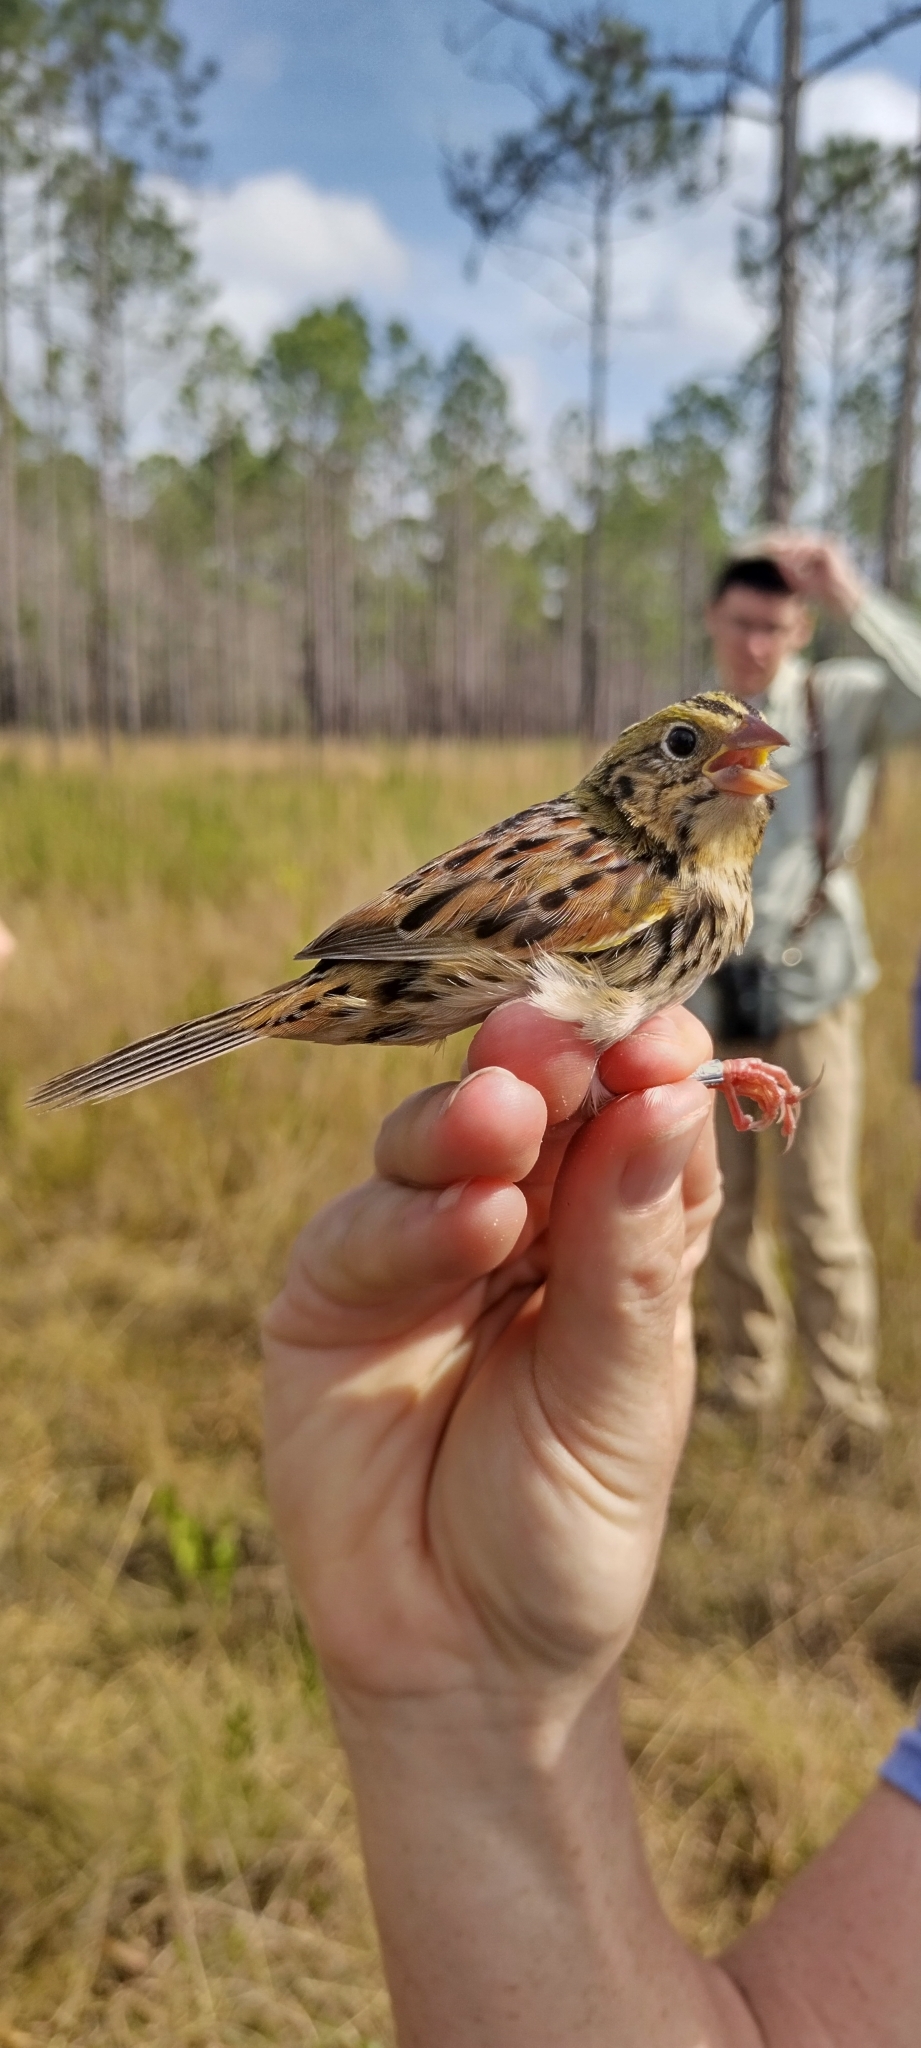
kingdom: Animalia
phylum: Chordata
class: Aves
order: Passeriformes
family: Passerellidae
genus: Centronyx
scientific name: Centronyx henslowii
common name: Henslow's sparrow
